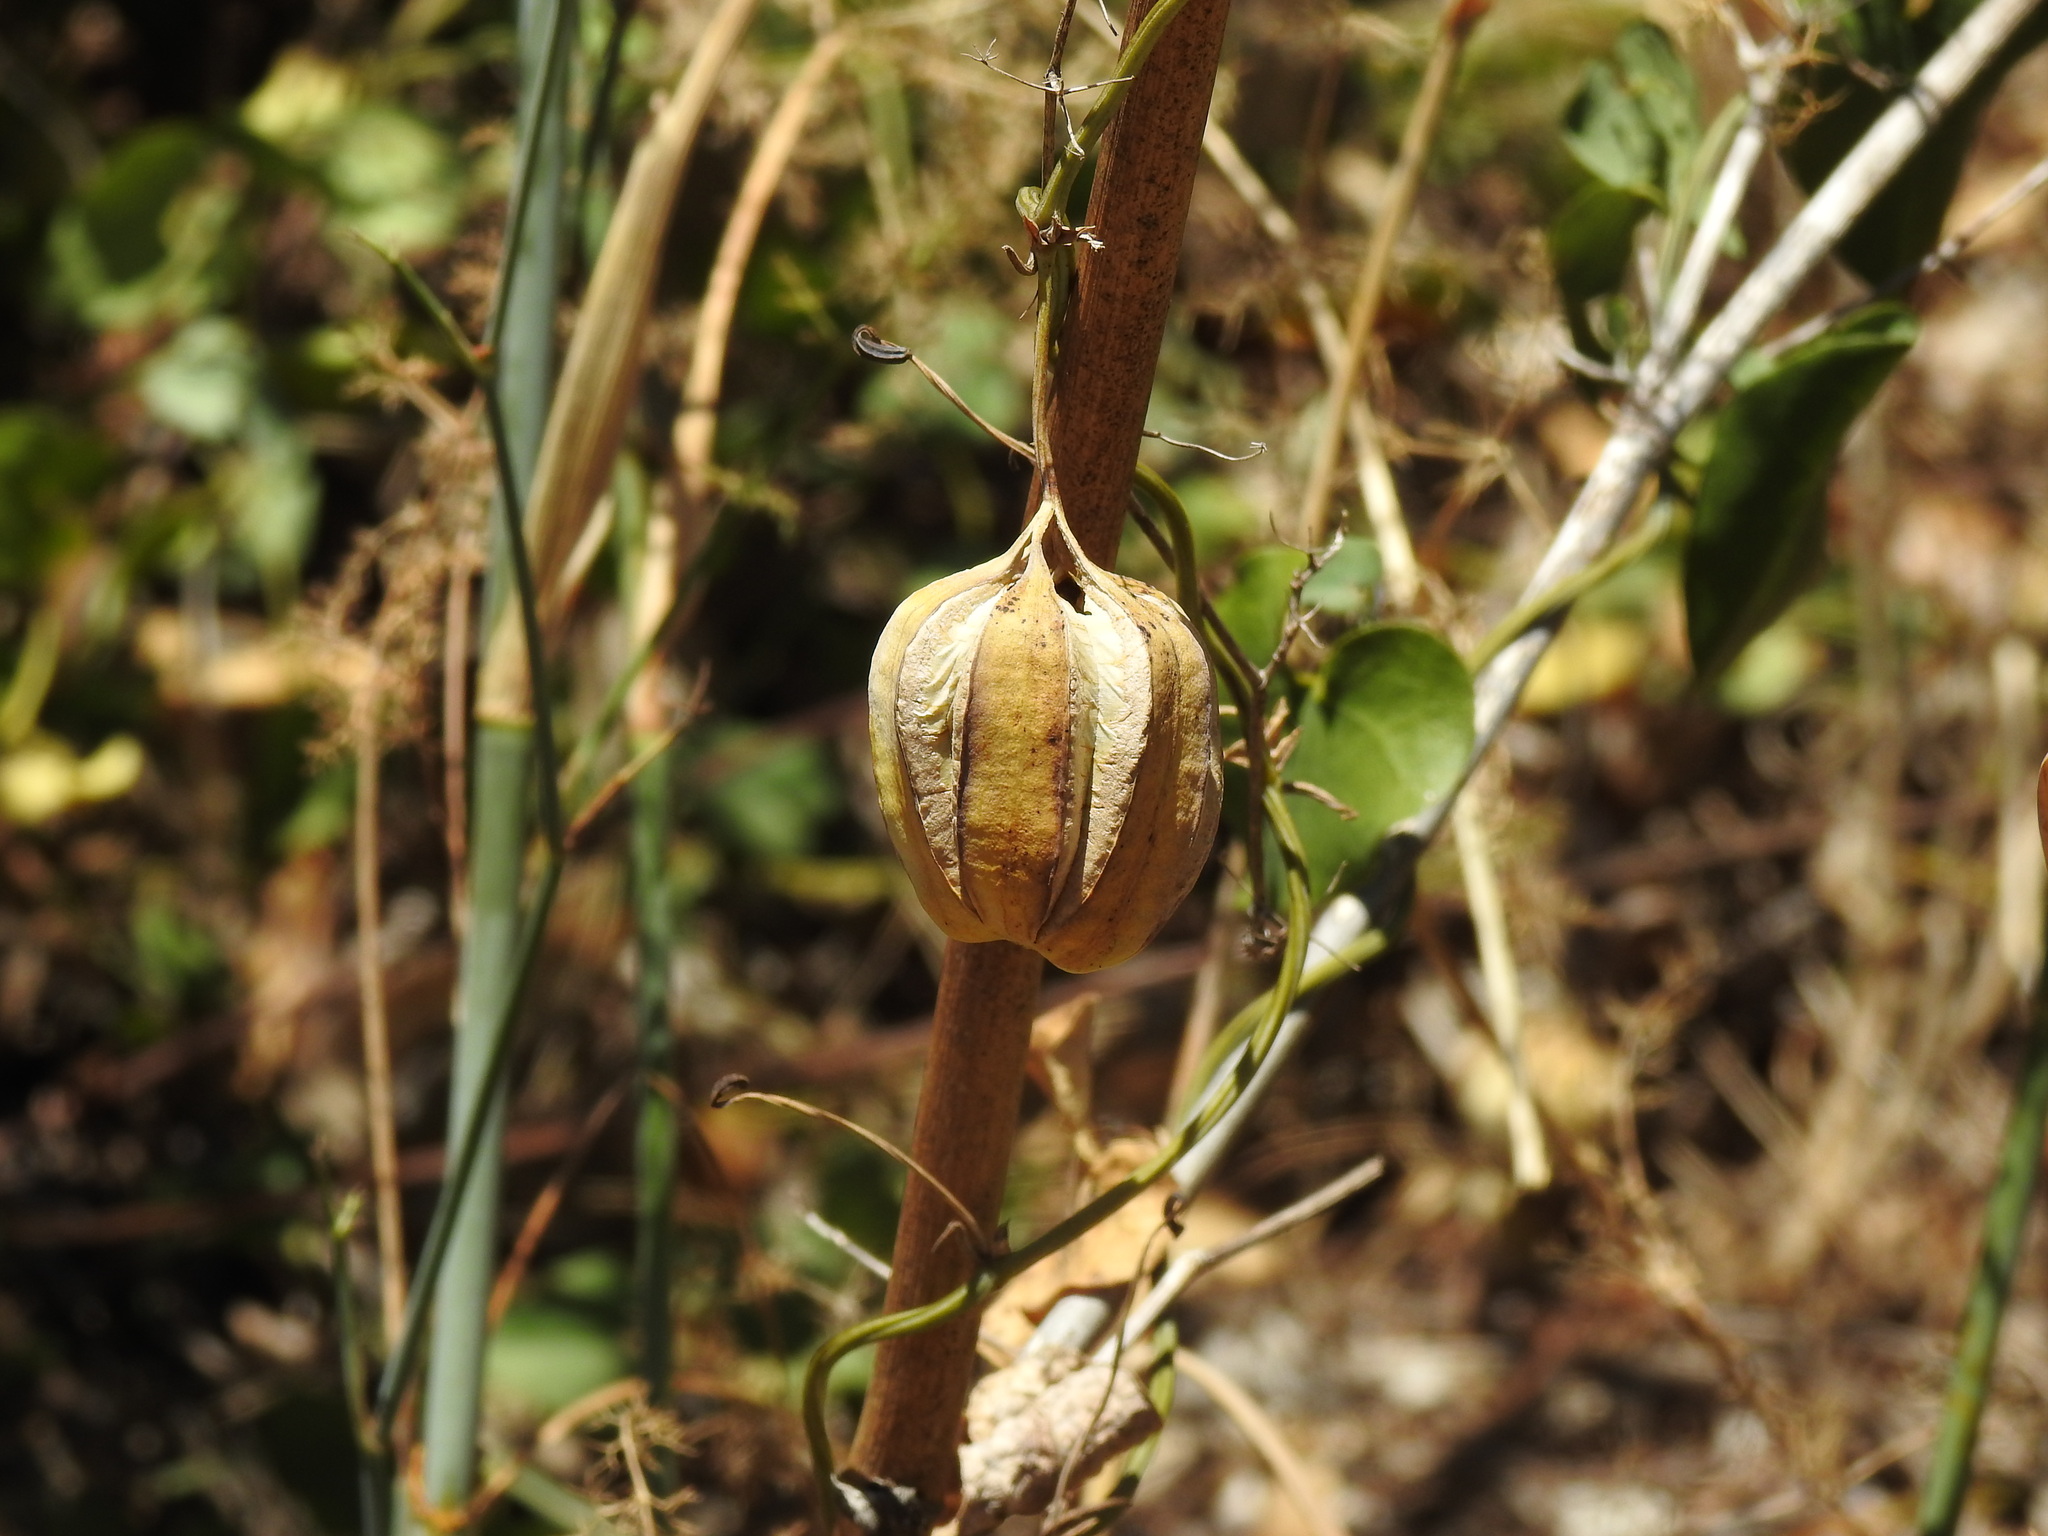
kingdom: Plantae
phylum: Tracheophyta
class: Magnoliopsida
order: Piperales
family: Aristolochiaceae
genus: Aristolochia
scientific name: Aristolochia baetica
